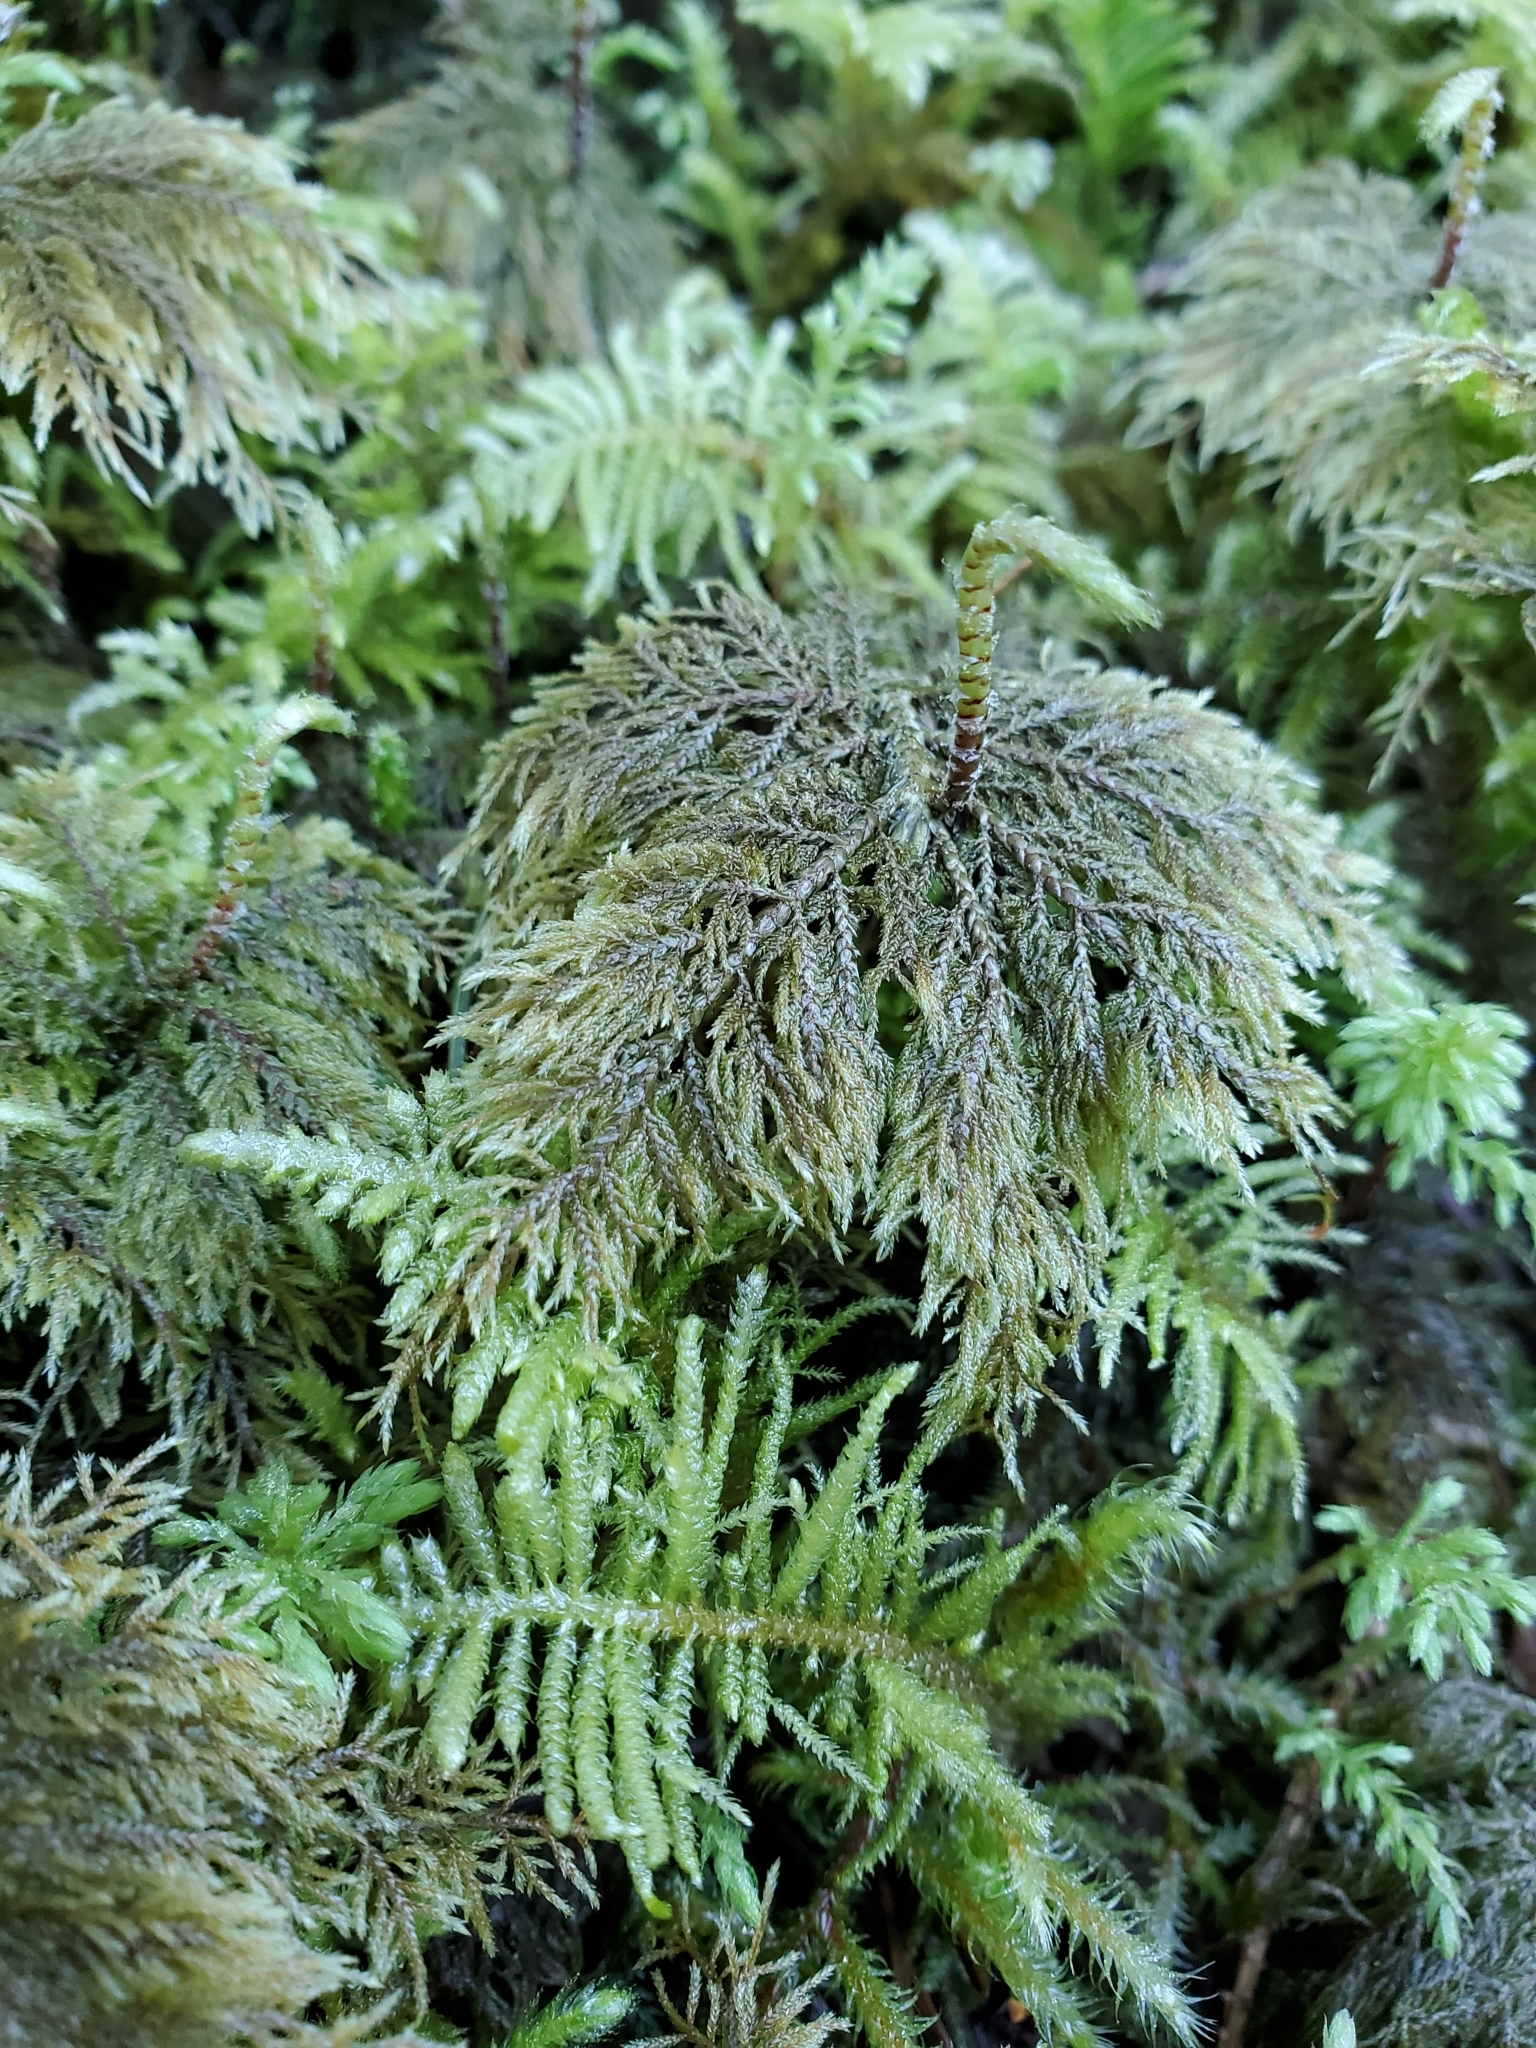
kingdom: Plantae
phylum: Bryophyta
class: Bryopsida
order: Hypnales
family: Hylocomiaceae
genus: Hylocomium
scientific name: Hylocomium splendens
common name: Stairstep moss
